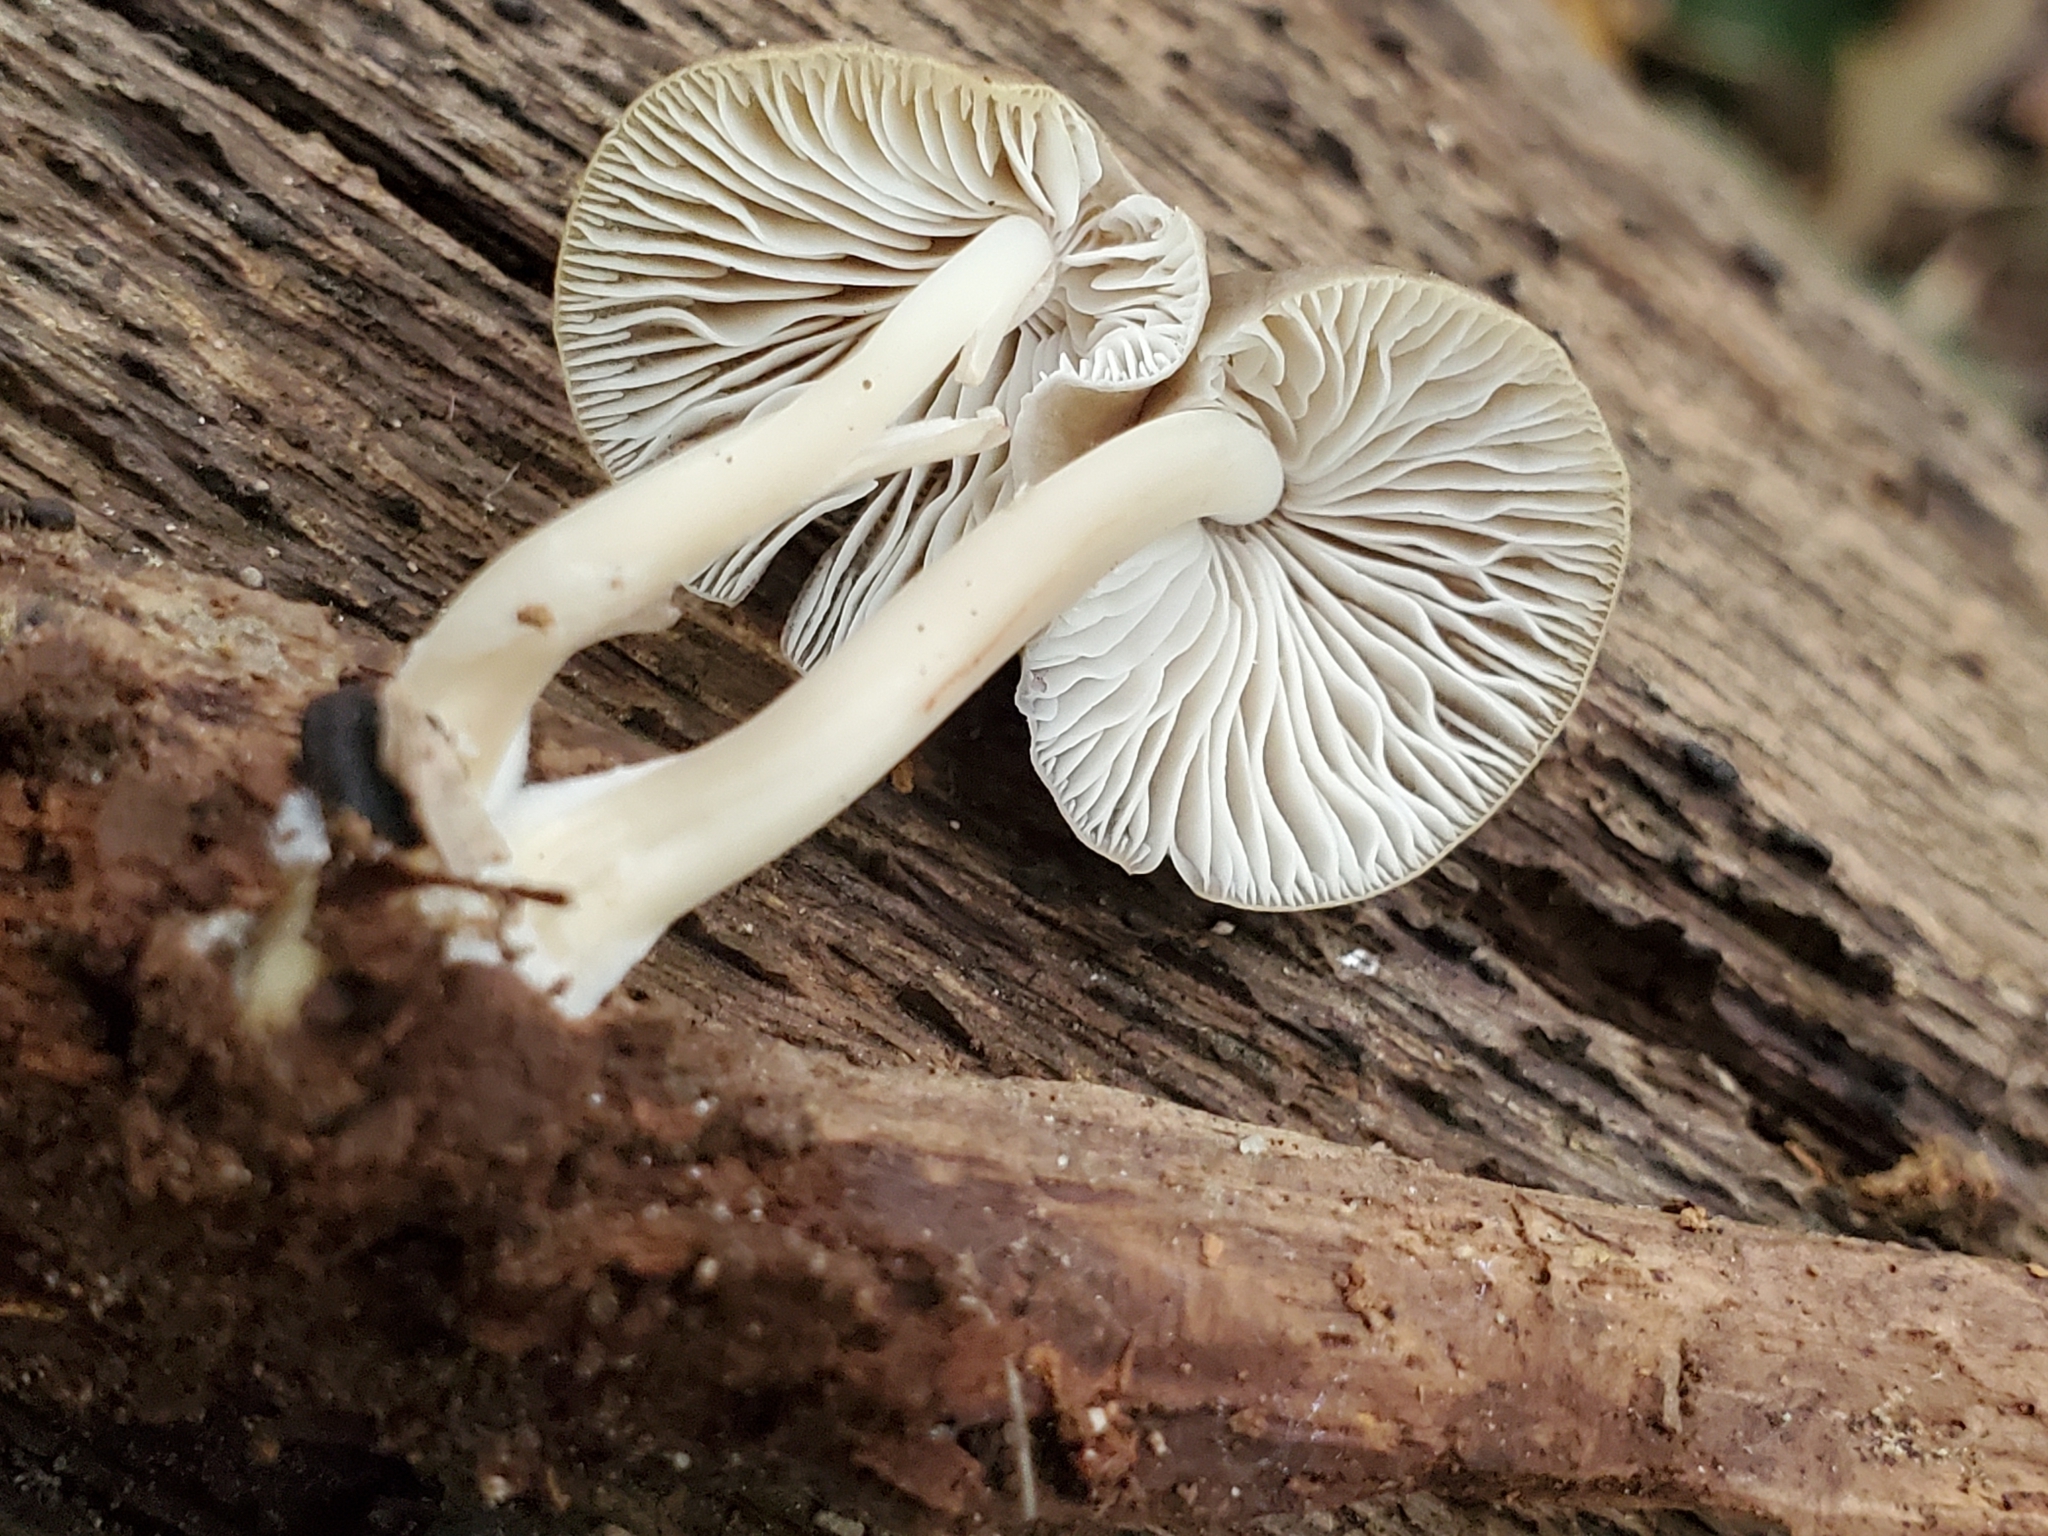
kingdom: Fungi
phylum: Basidiomycota
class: Agaricomycetes
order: Agaricales
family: Mycenaceae
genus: Mycena
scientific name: Mycena galericulata
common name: Bonnet mycena
